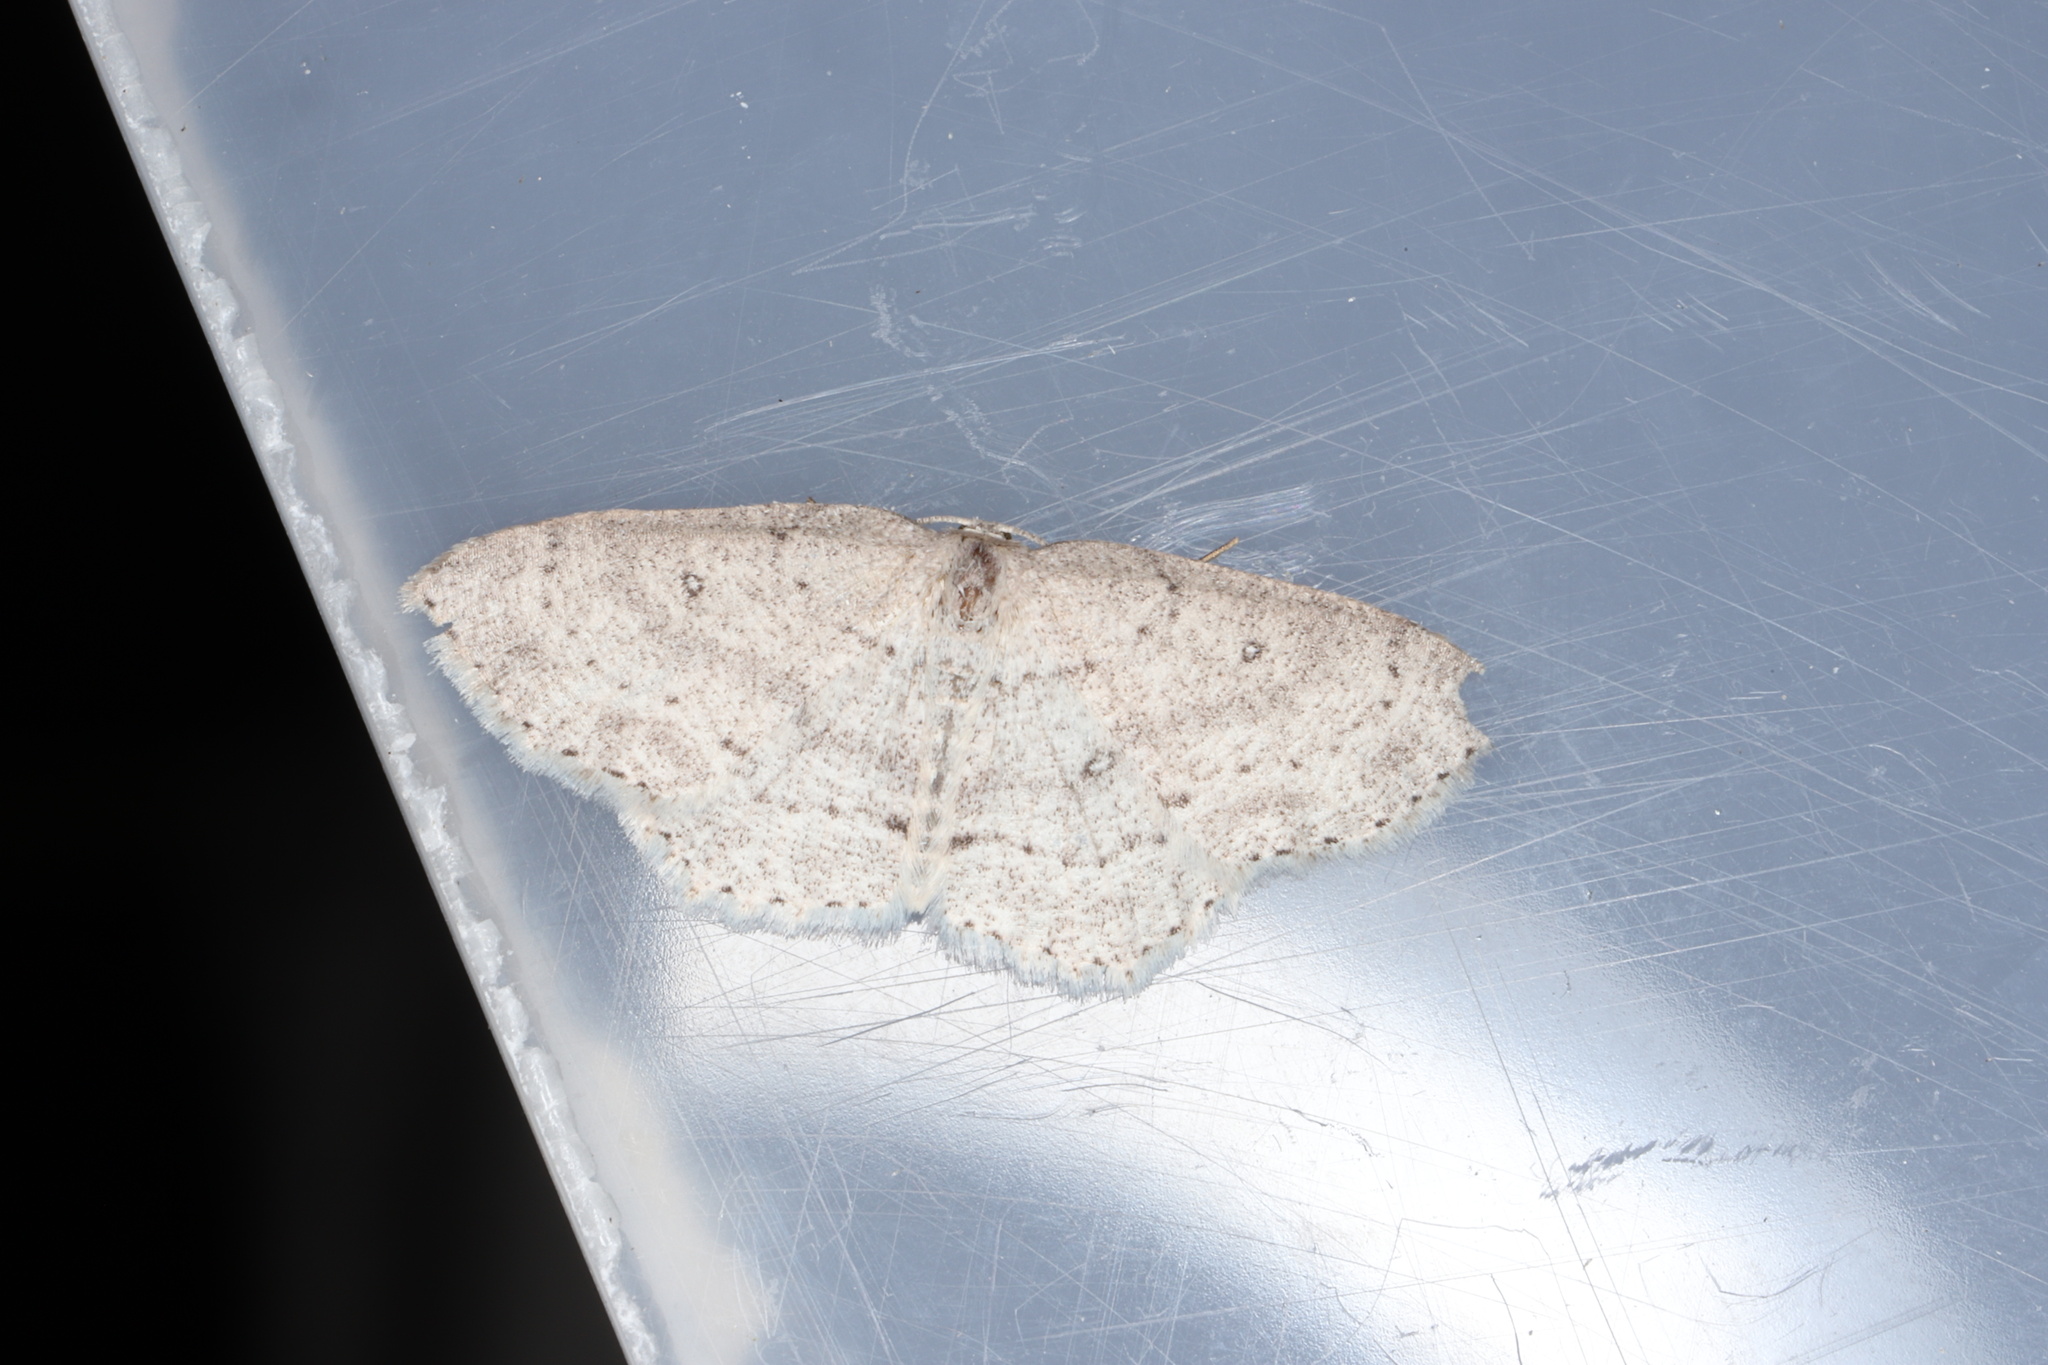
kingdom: Animalia
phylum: Arthropoda
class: Insecta
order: Lepidoptera
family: Geometridae
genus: Cyclophora
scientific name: Cyclophora pendulinaria
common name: Sweet fern geometer
